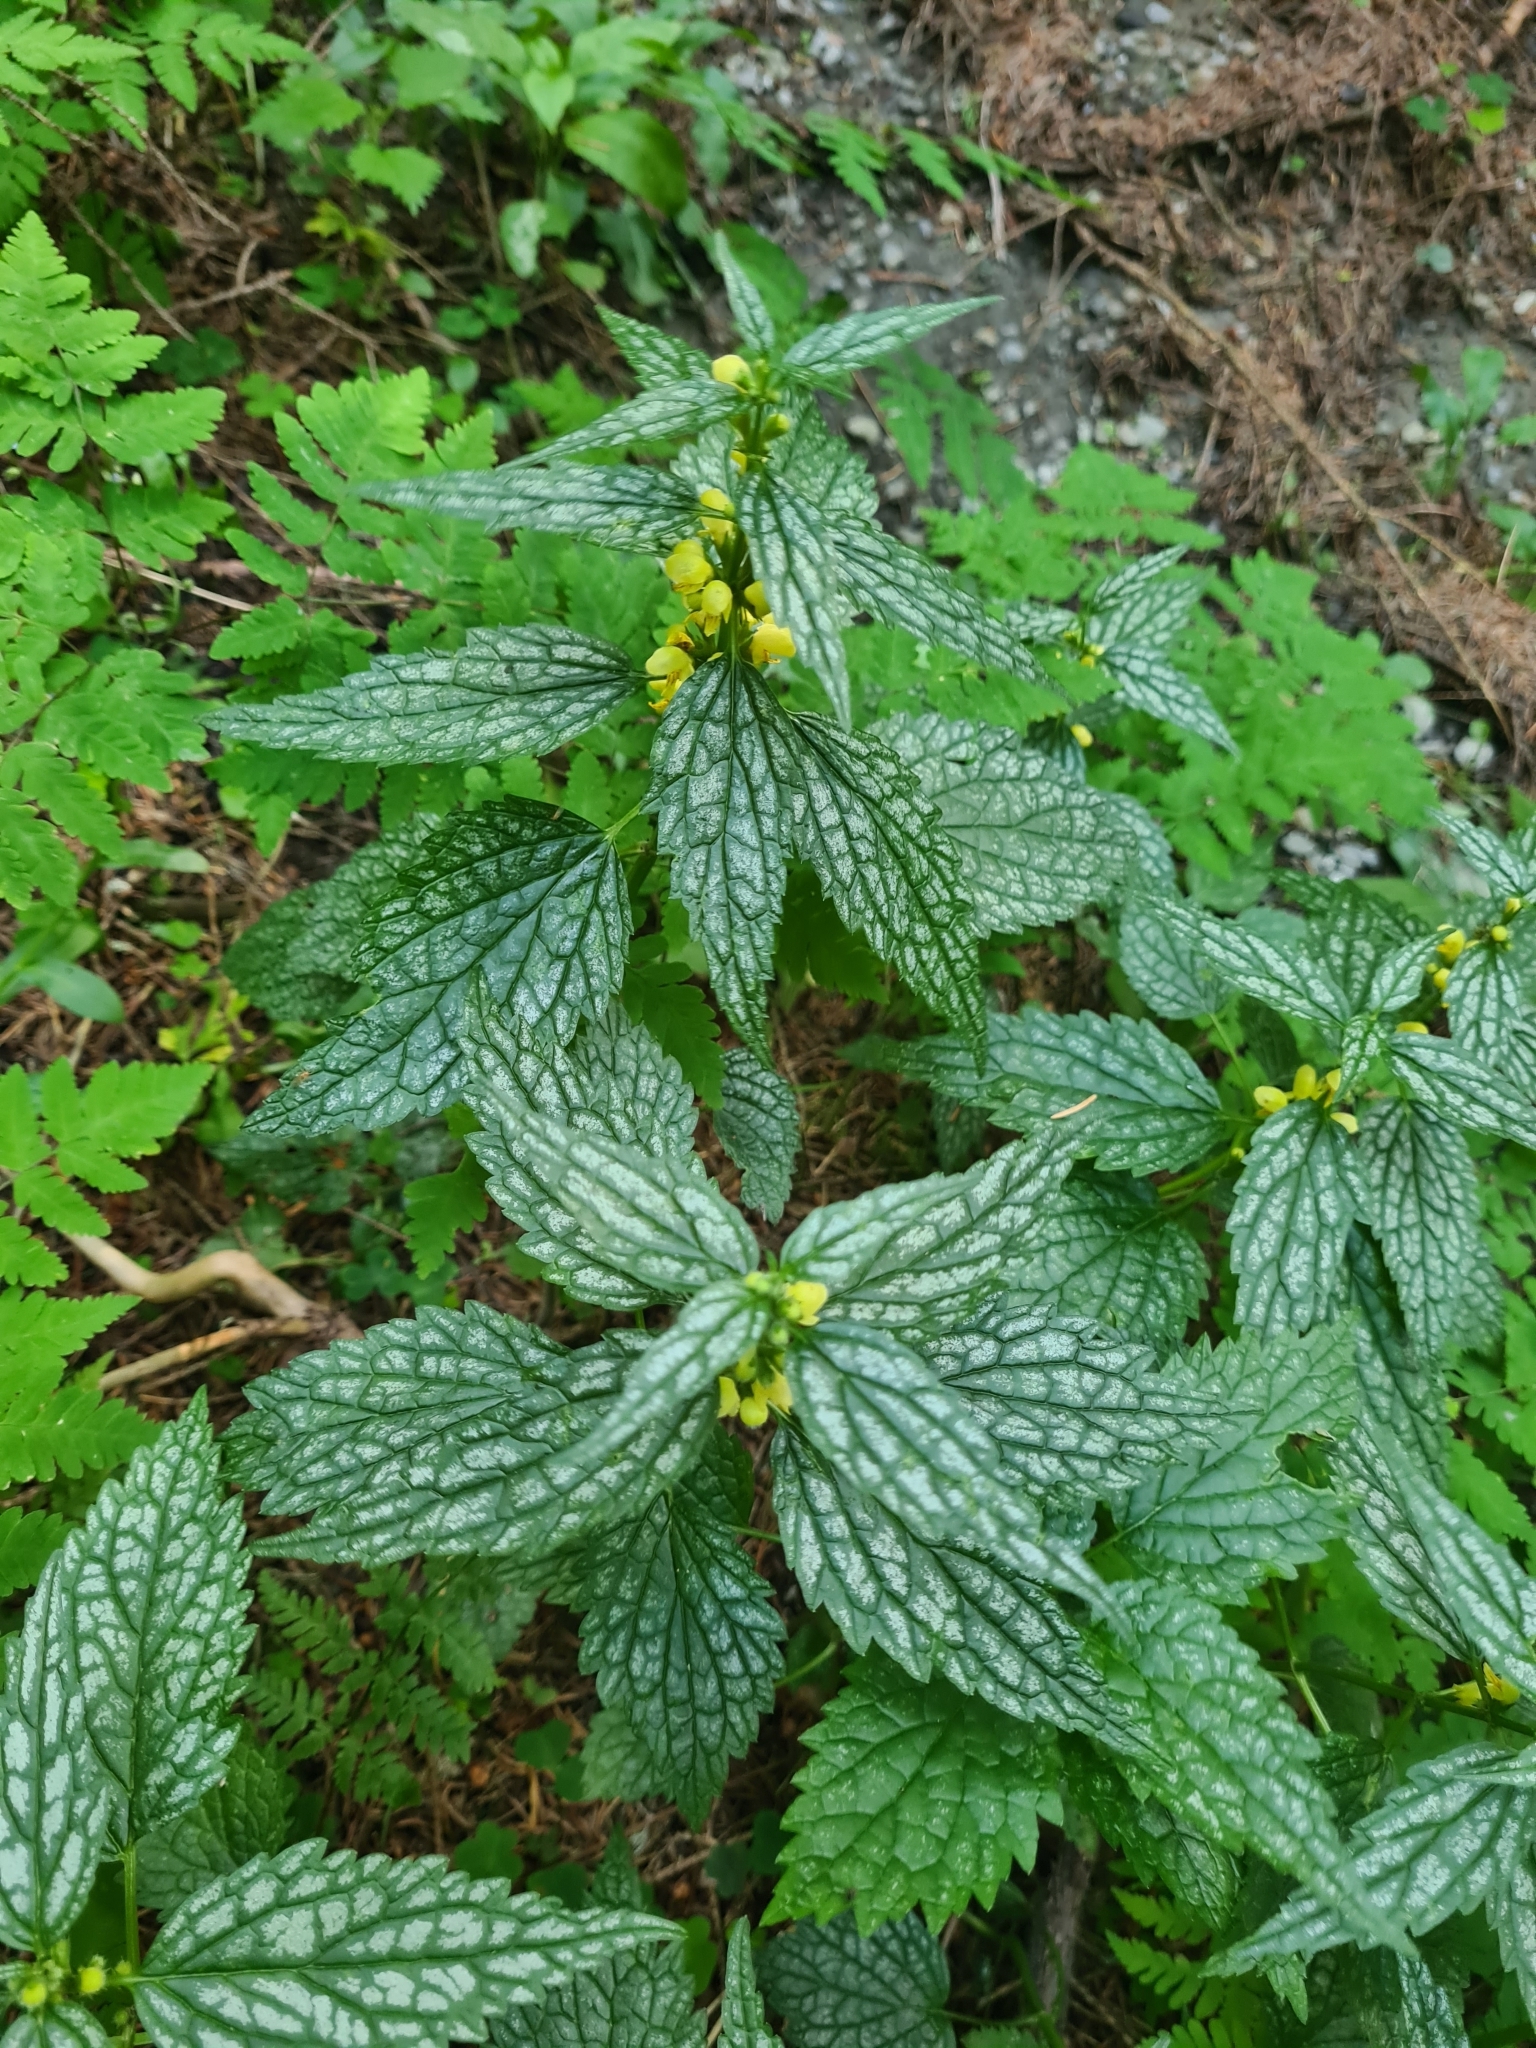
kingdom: Plantae
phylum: Tracheophyta
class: Magnoliopsida
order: Lamiales
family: Lamiaceae
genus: Lamium
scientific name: Lamium galeobdolon
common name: Yellow archangel
